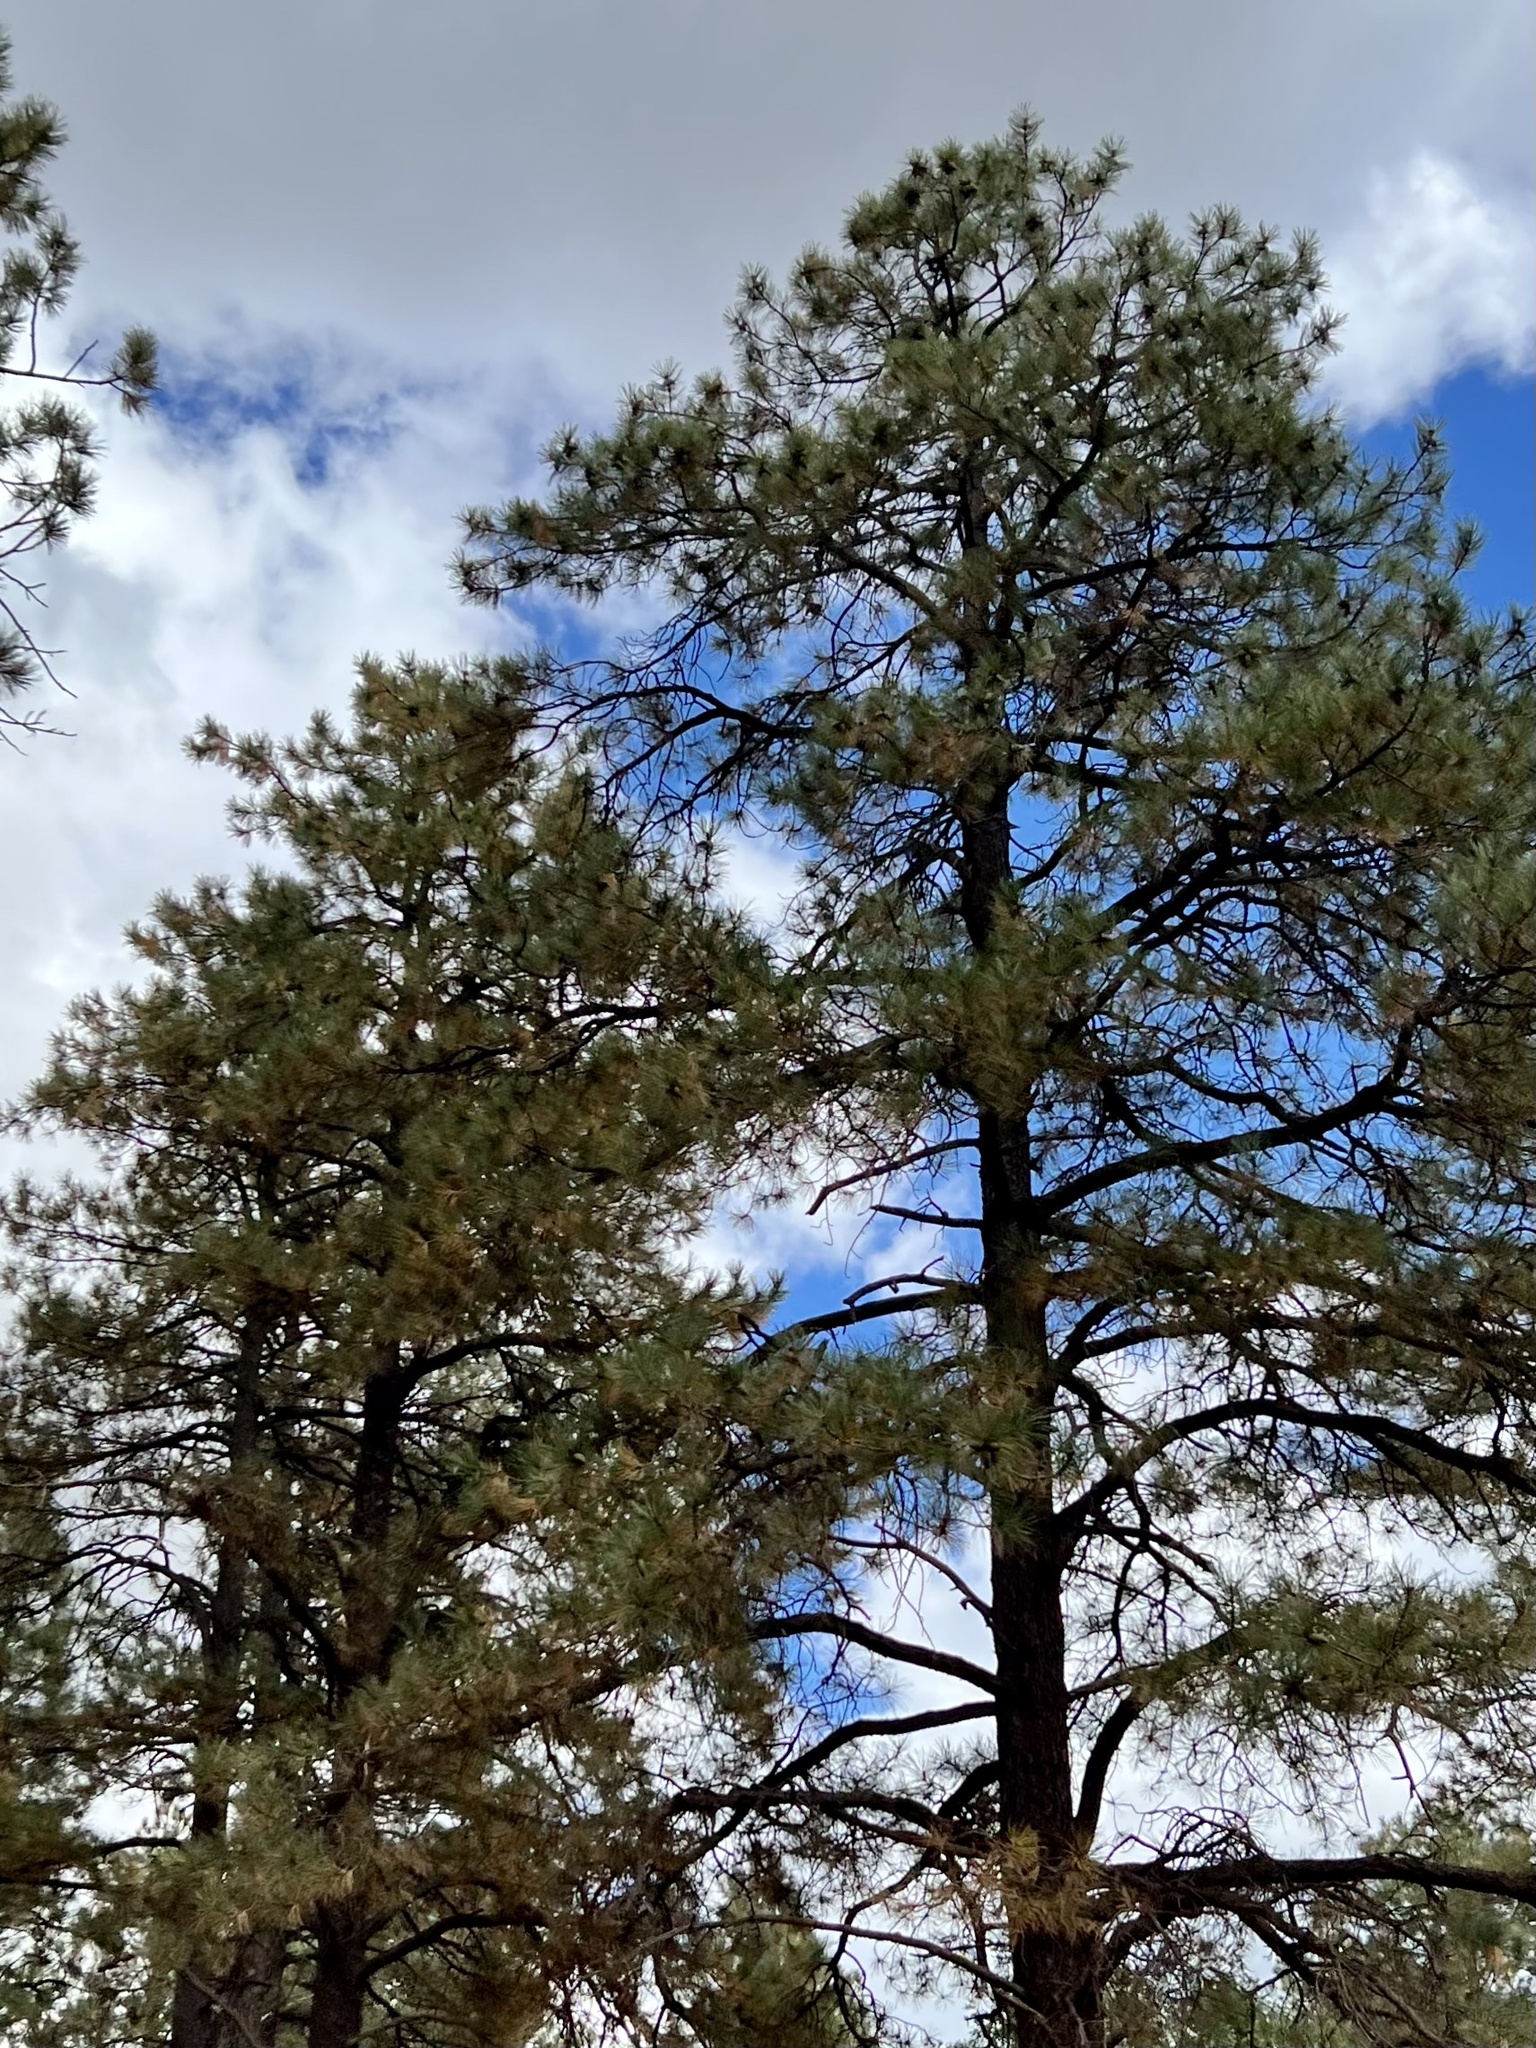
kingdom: Plantae
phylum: Tracheophyta
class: Pinopsida
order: Pinales
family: Pinaceae
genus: Pinus
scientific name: Pinus ponderosa
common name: Western yellow-pine
